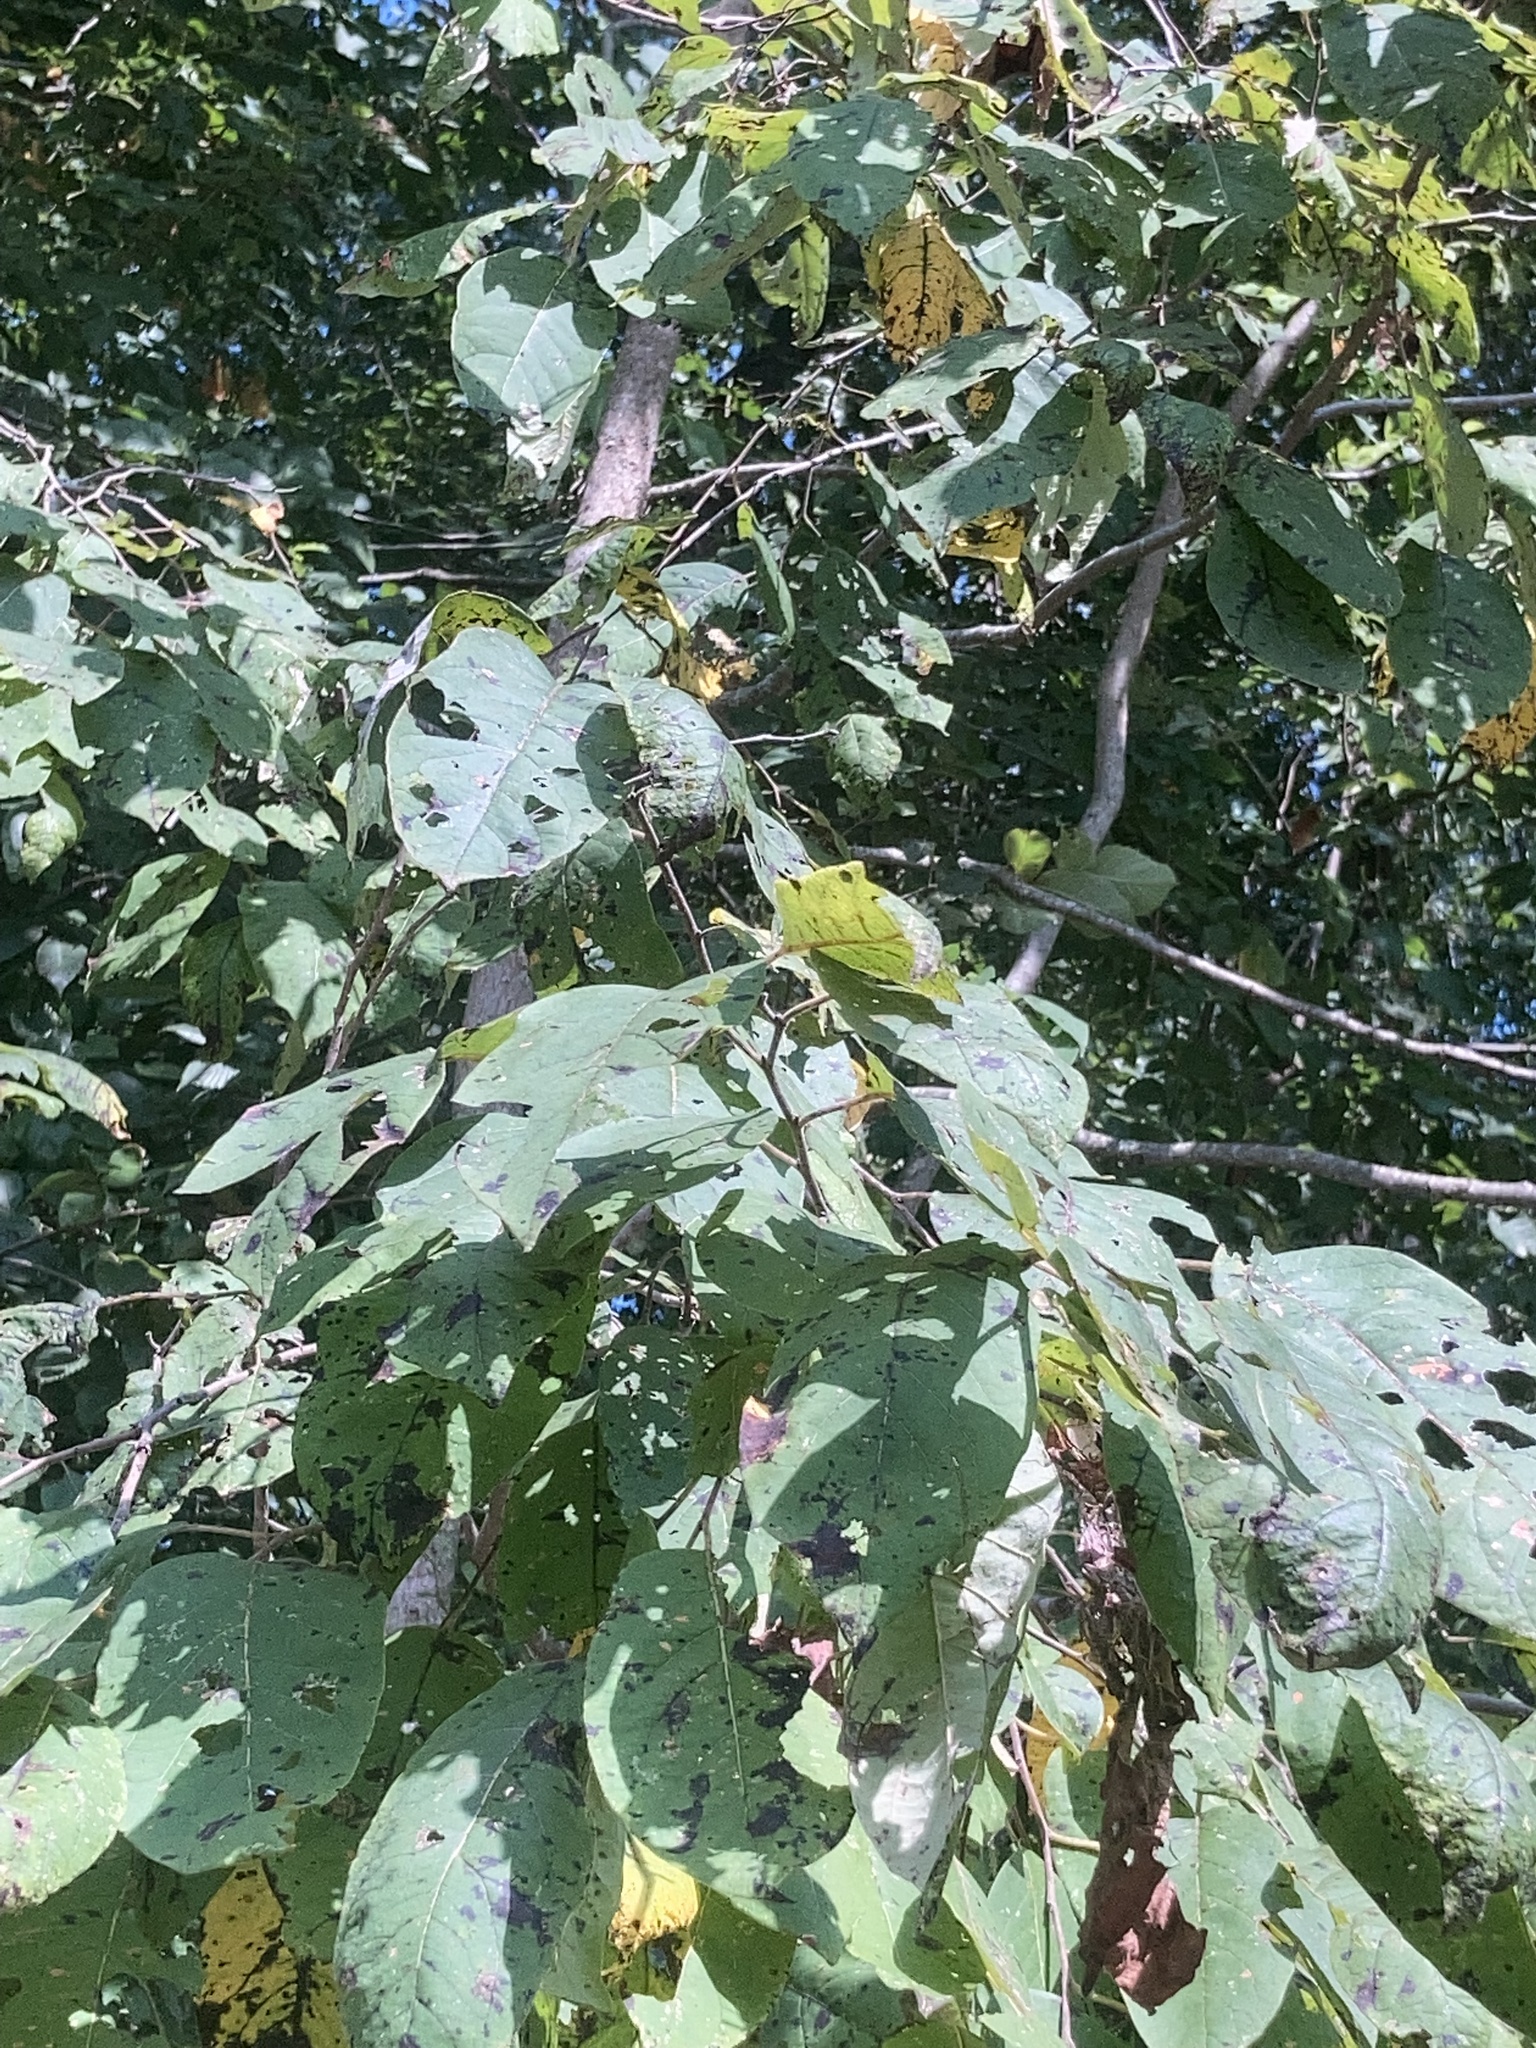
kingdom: Plantae
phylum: Tracheophyta
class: Magnoliopsida
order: Ericales
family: Ebenaceae
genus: Diospyros
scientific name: Diospyros virginiana
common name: Persimmon
